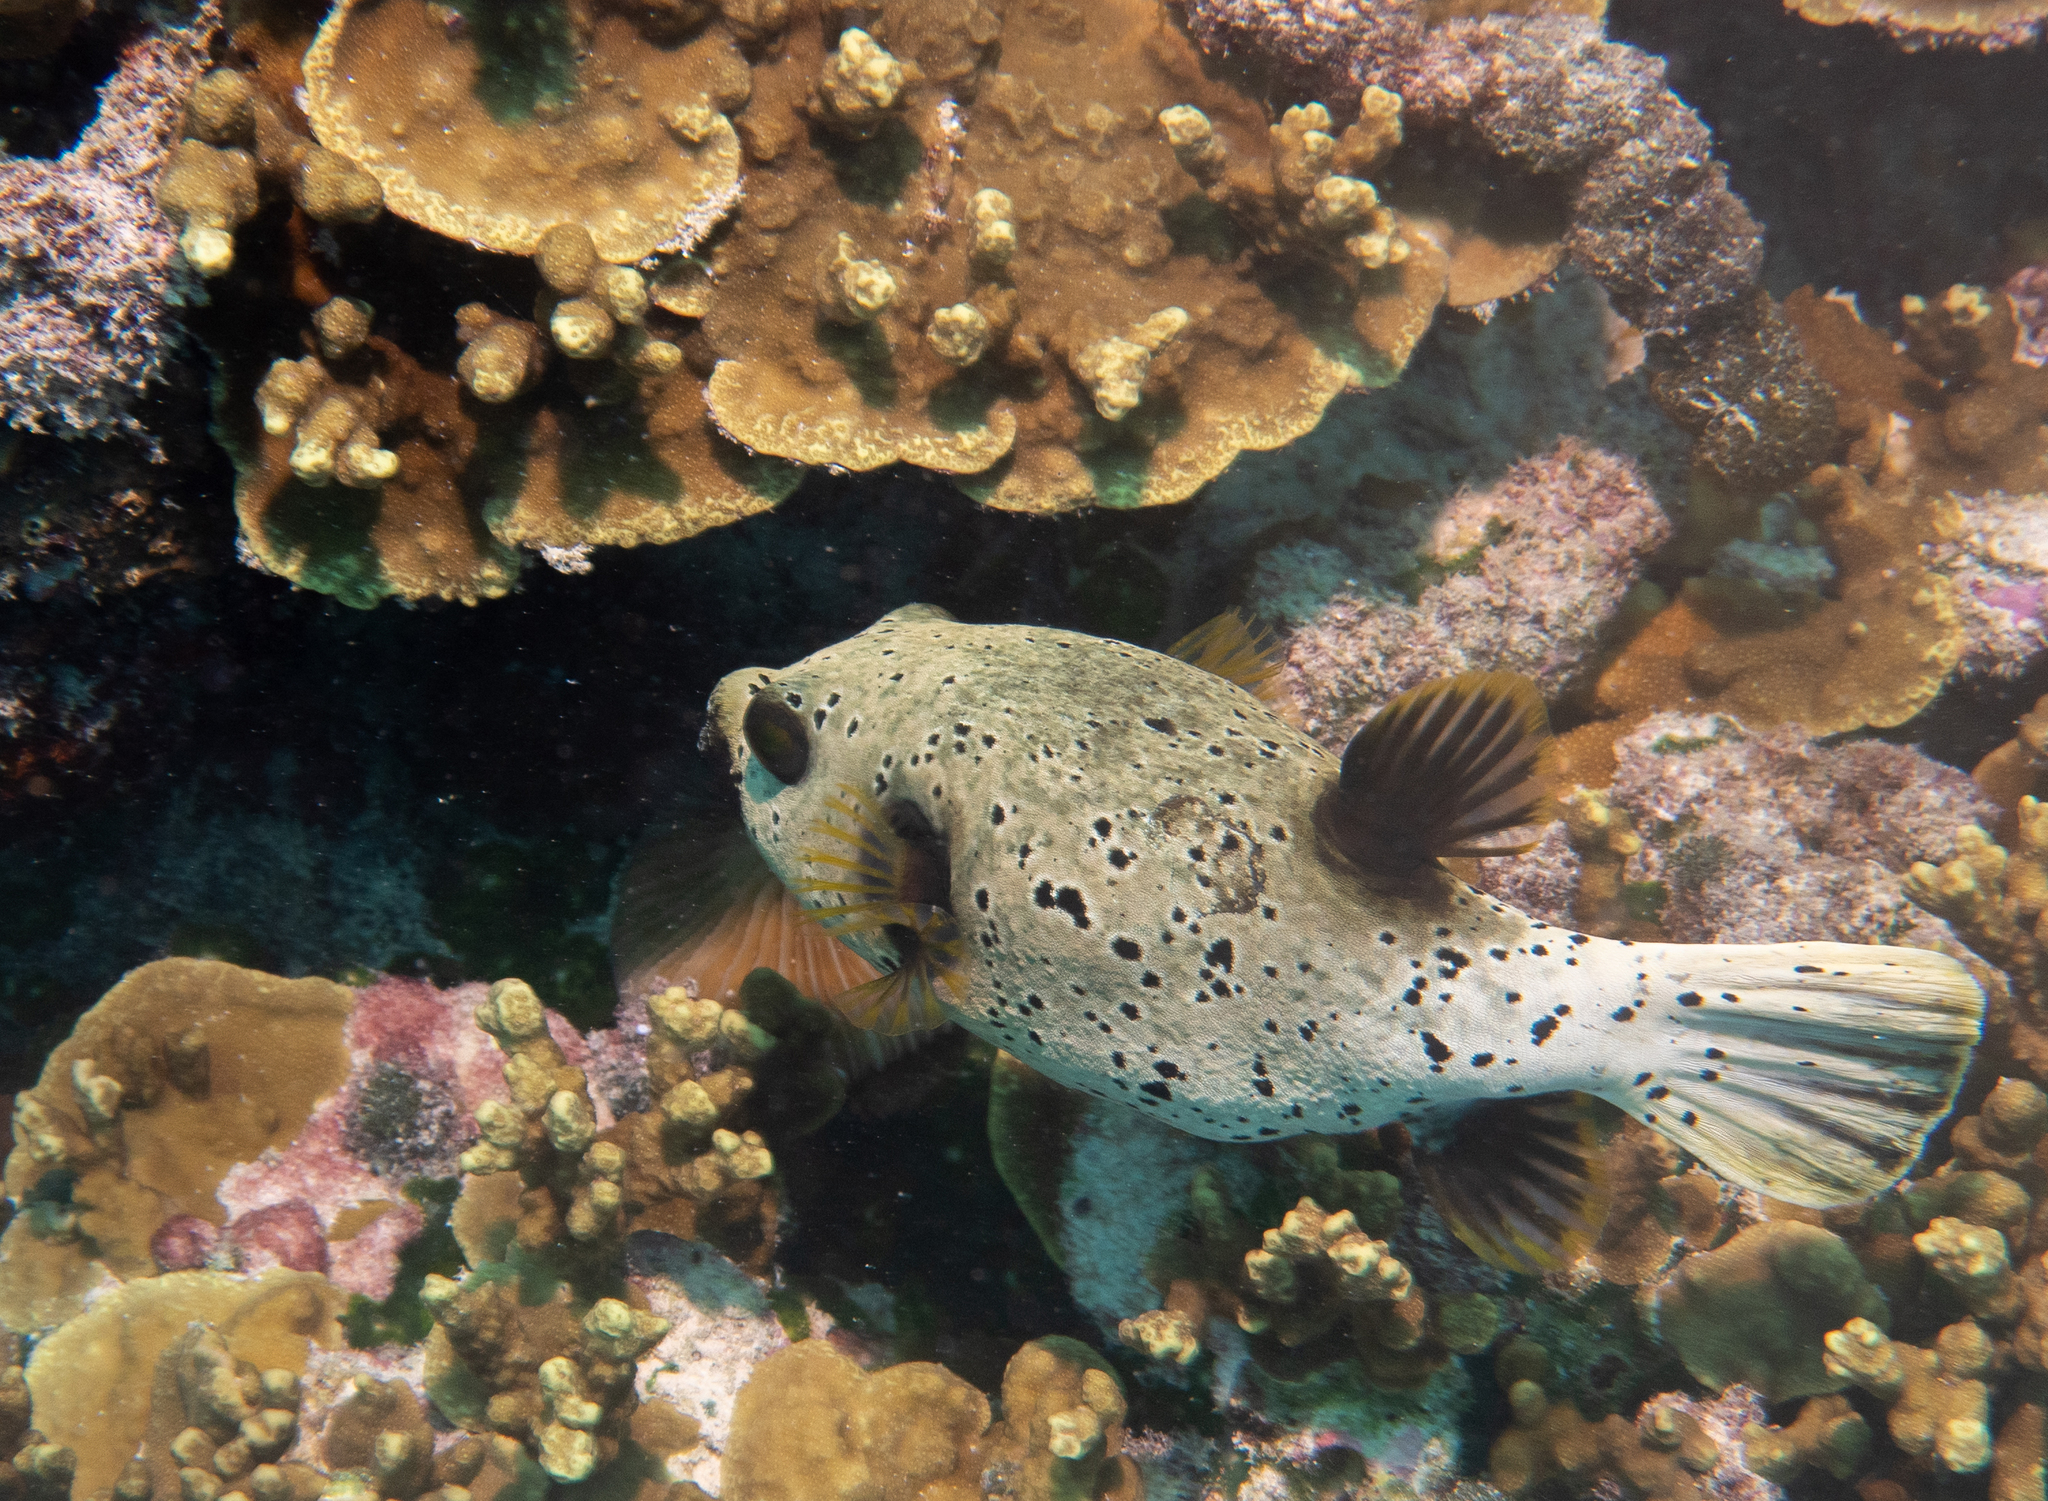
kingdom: Animalia
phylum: Chordata
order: Tetraodontiformes
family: Tetraodontidae
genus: Arothron
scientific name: Arothron nigropunctatus
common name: Black spotted blow fish
